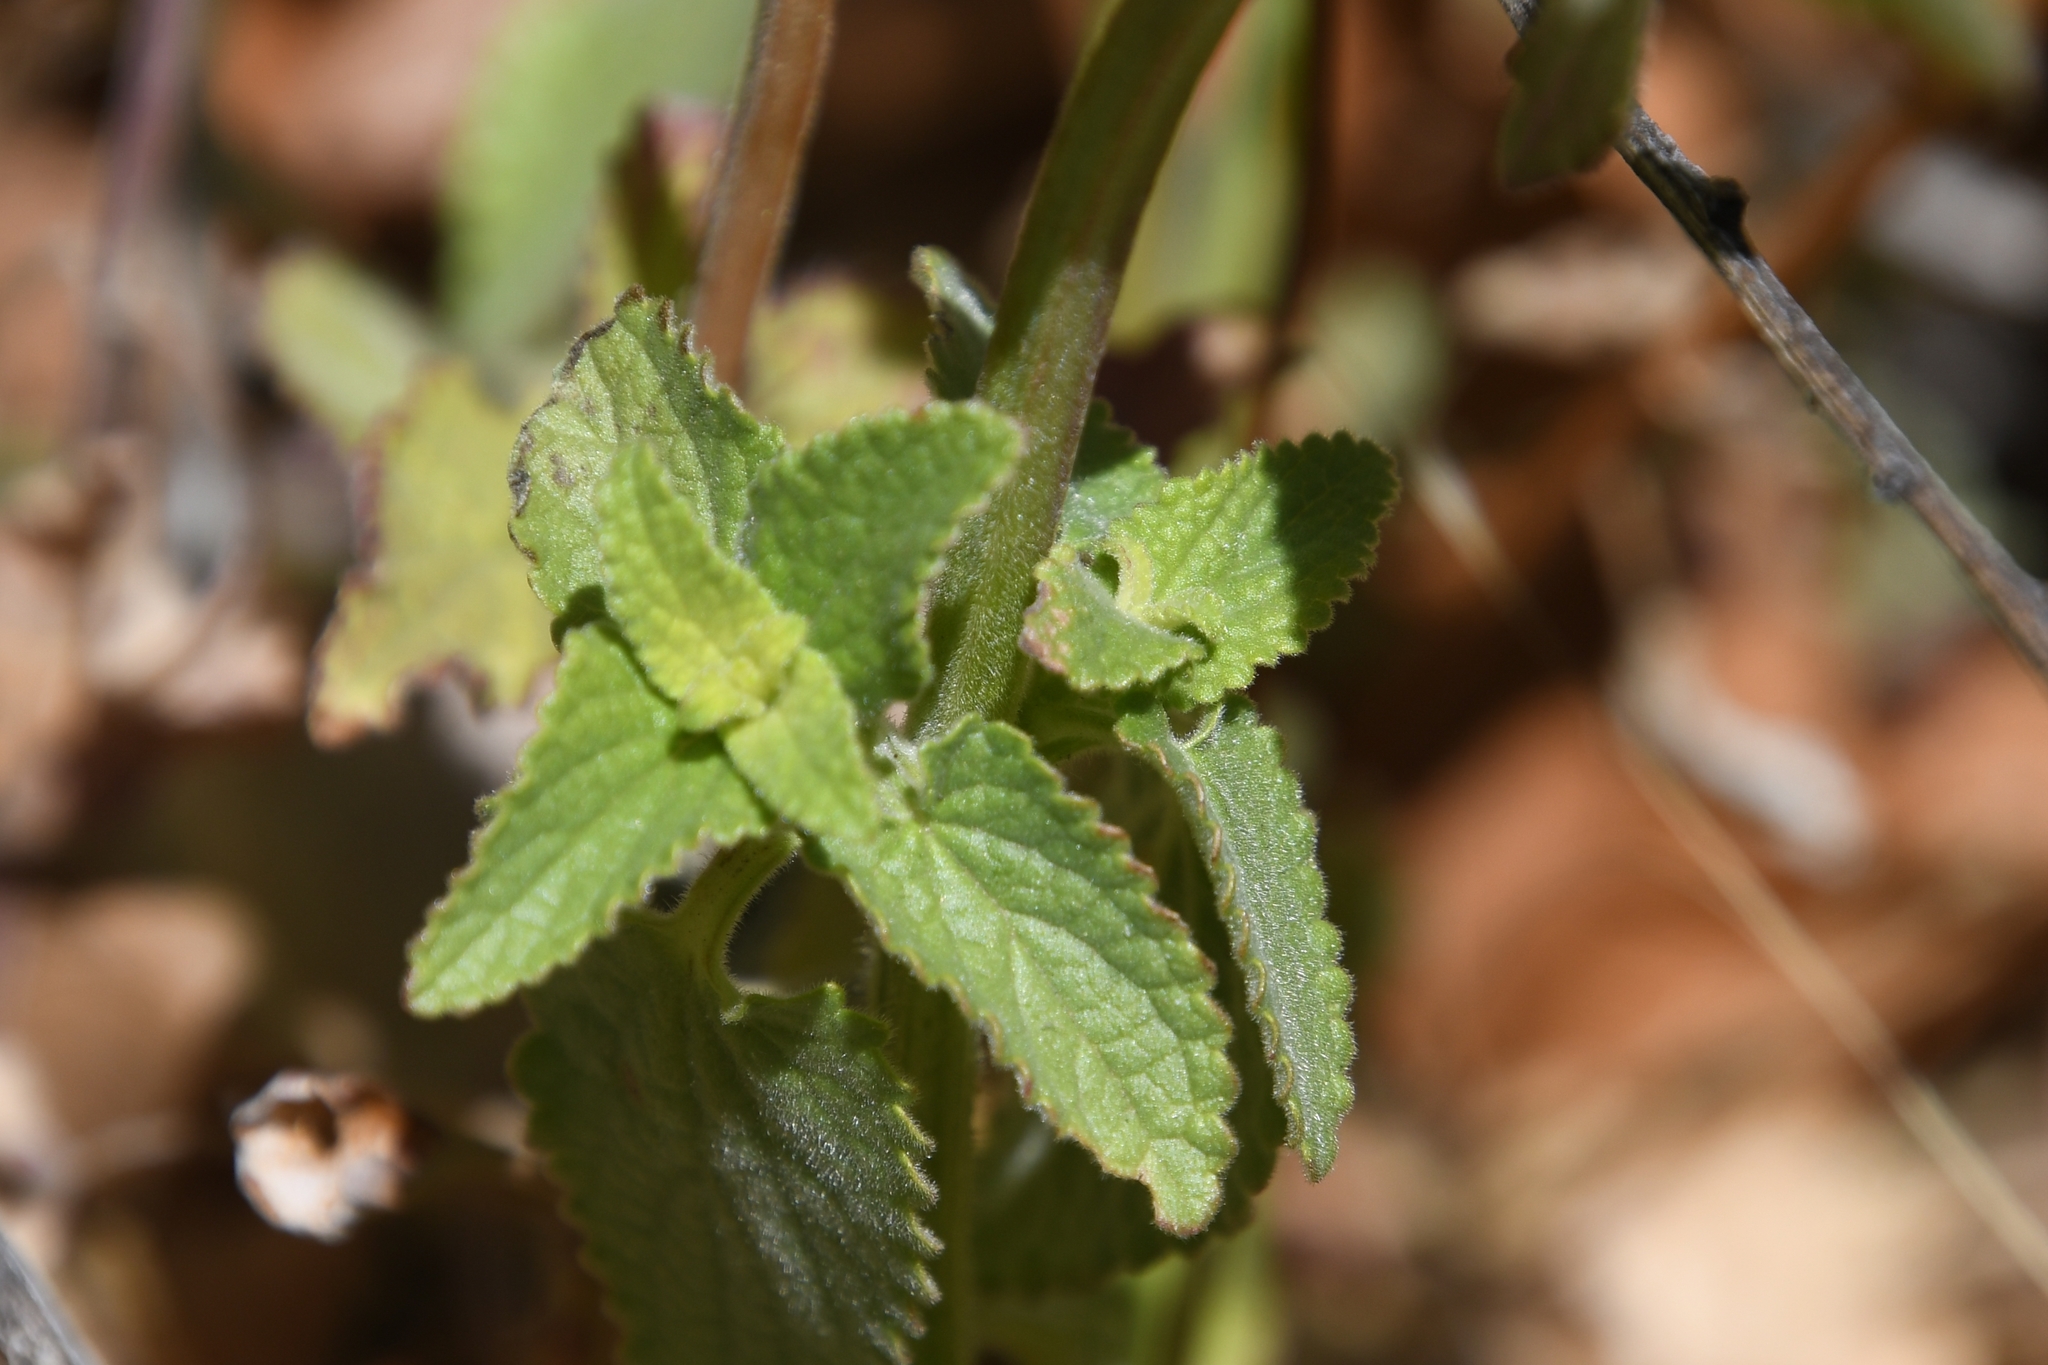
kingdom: Plantae
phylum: Tracheophyta
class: Magnoliopsida
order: Lamiales
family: Lamiaceae
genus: Stachys
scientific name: Stachys coccinea
